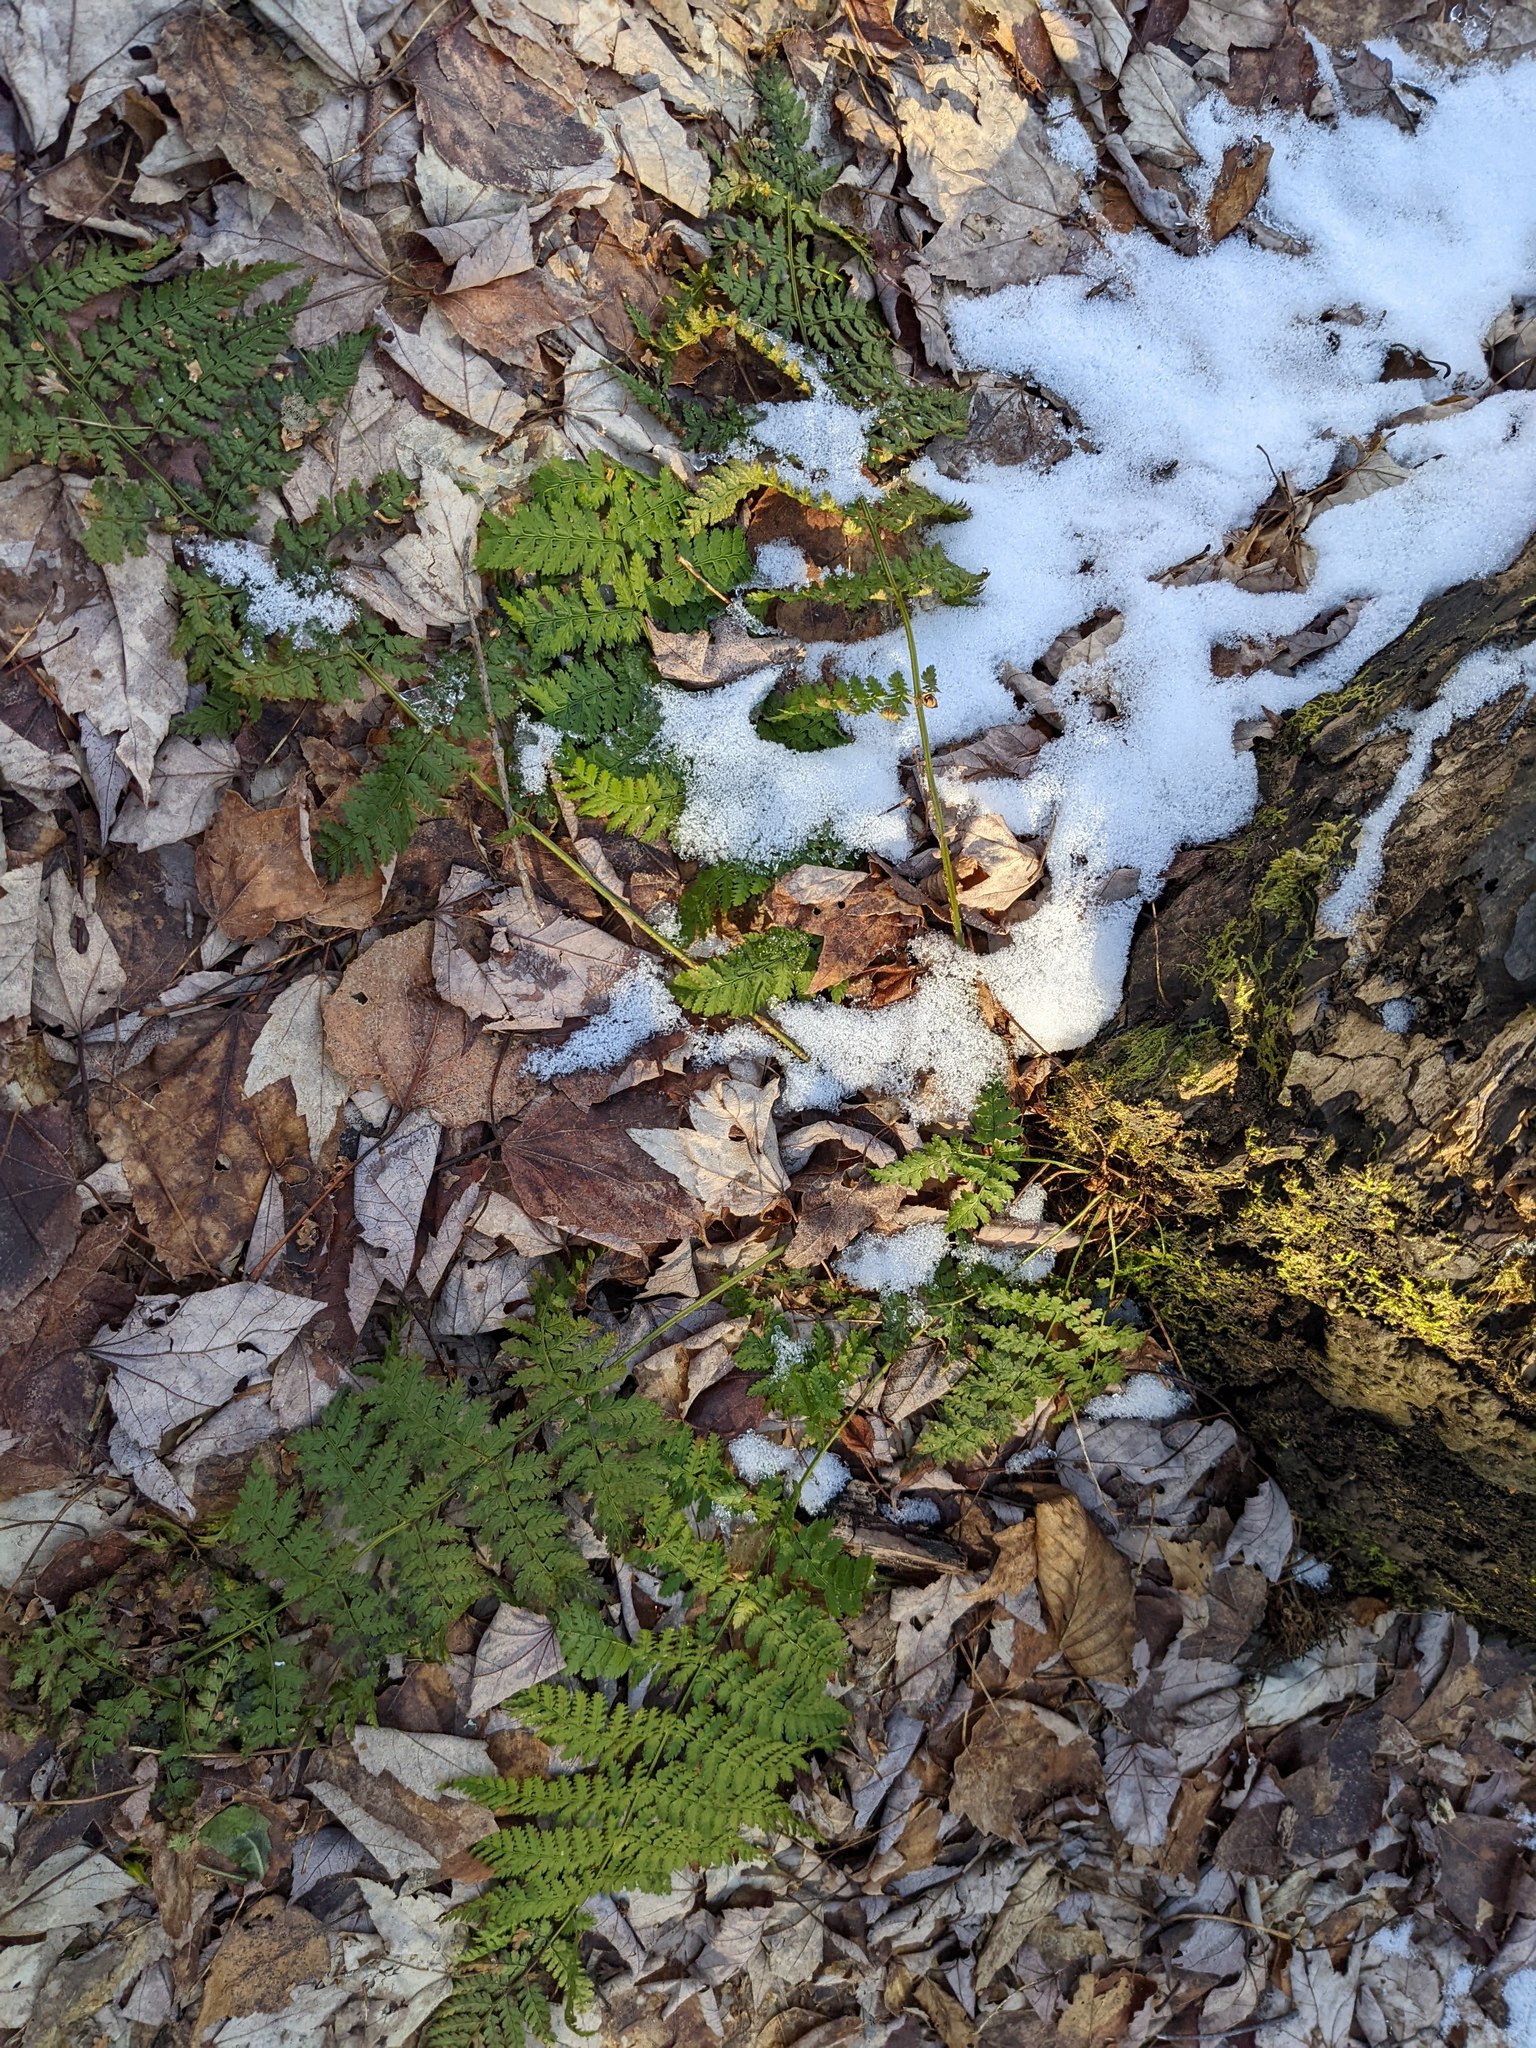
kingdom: Plantae
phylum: Tracheophyta
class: Polypodiopsida
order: Polypodiales
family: Dryopteridaceae
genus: Dryopteris
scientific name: Dryopteris intermedia
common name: Evergreen wood fern
